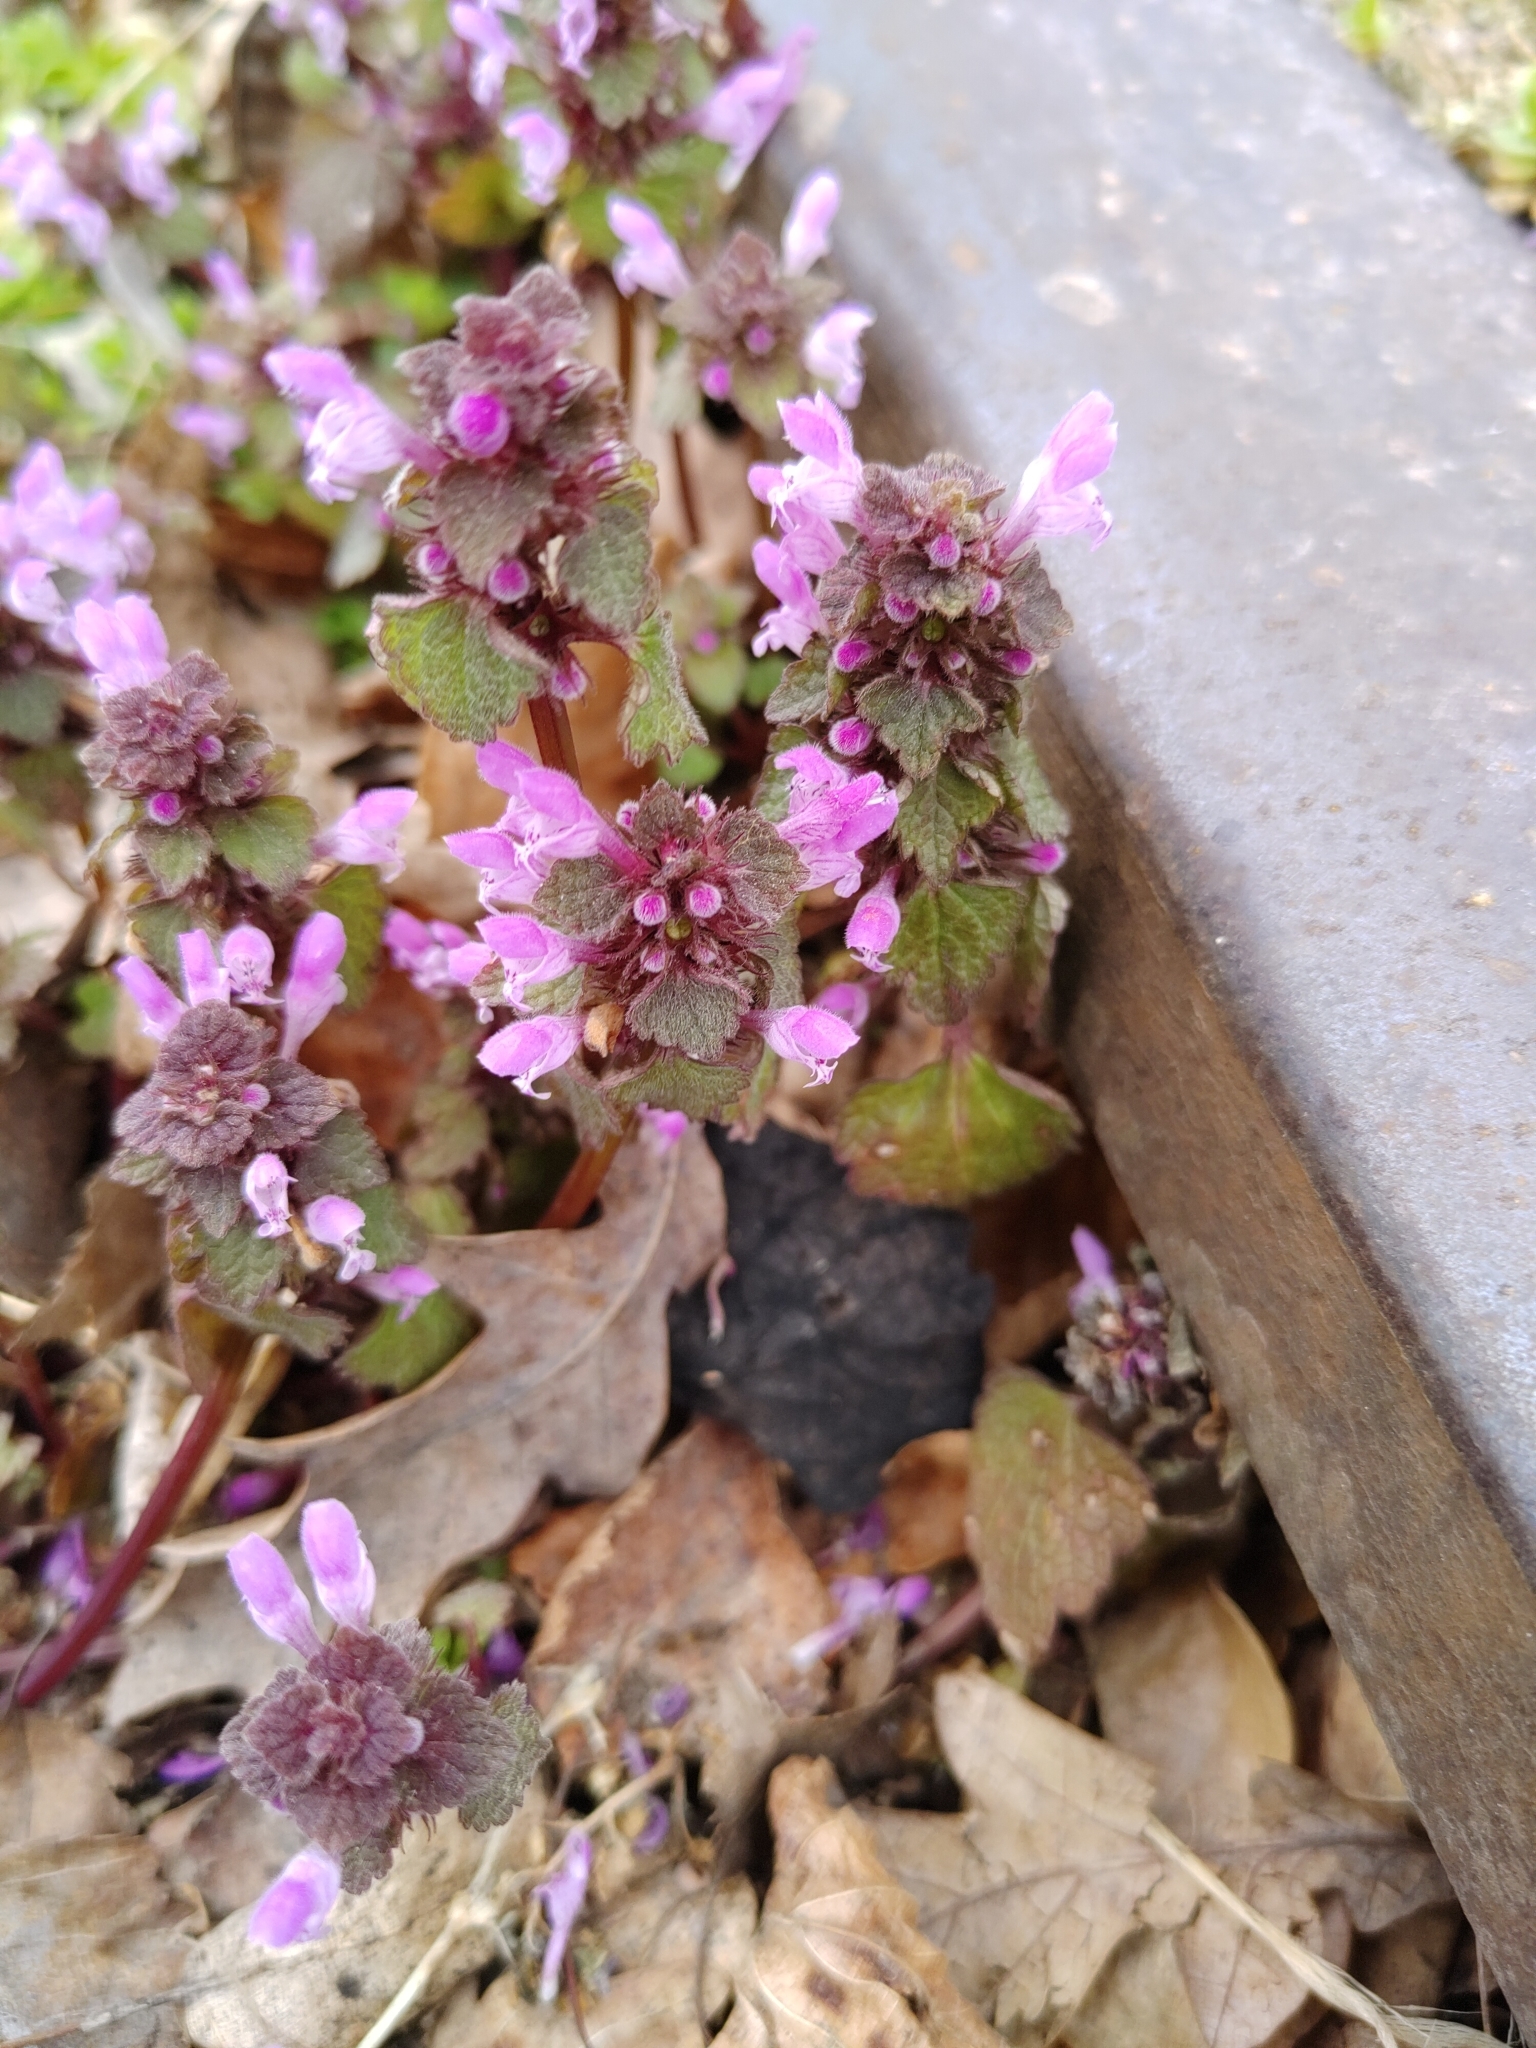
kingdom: Plantae
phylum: Tracheophyta
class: Magnoliopsida
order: Lamiales
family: Lamiaceae
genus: Lamium
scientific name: Lamium purpureum
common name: Red dead-nettle
